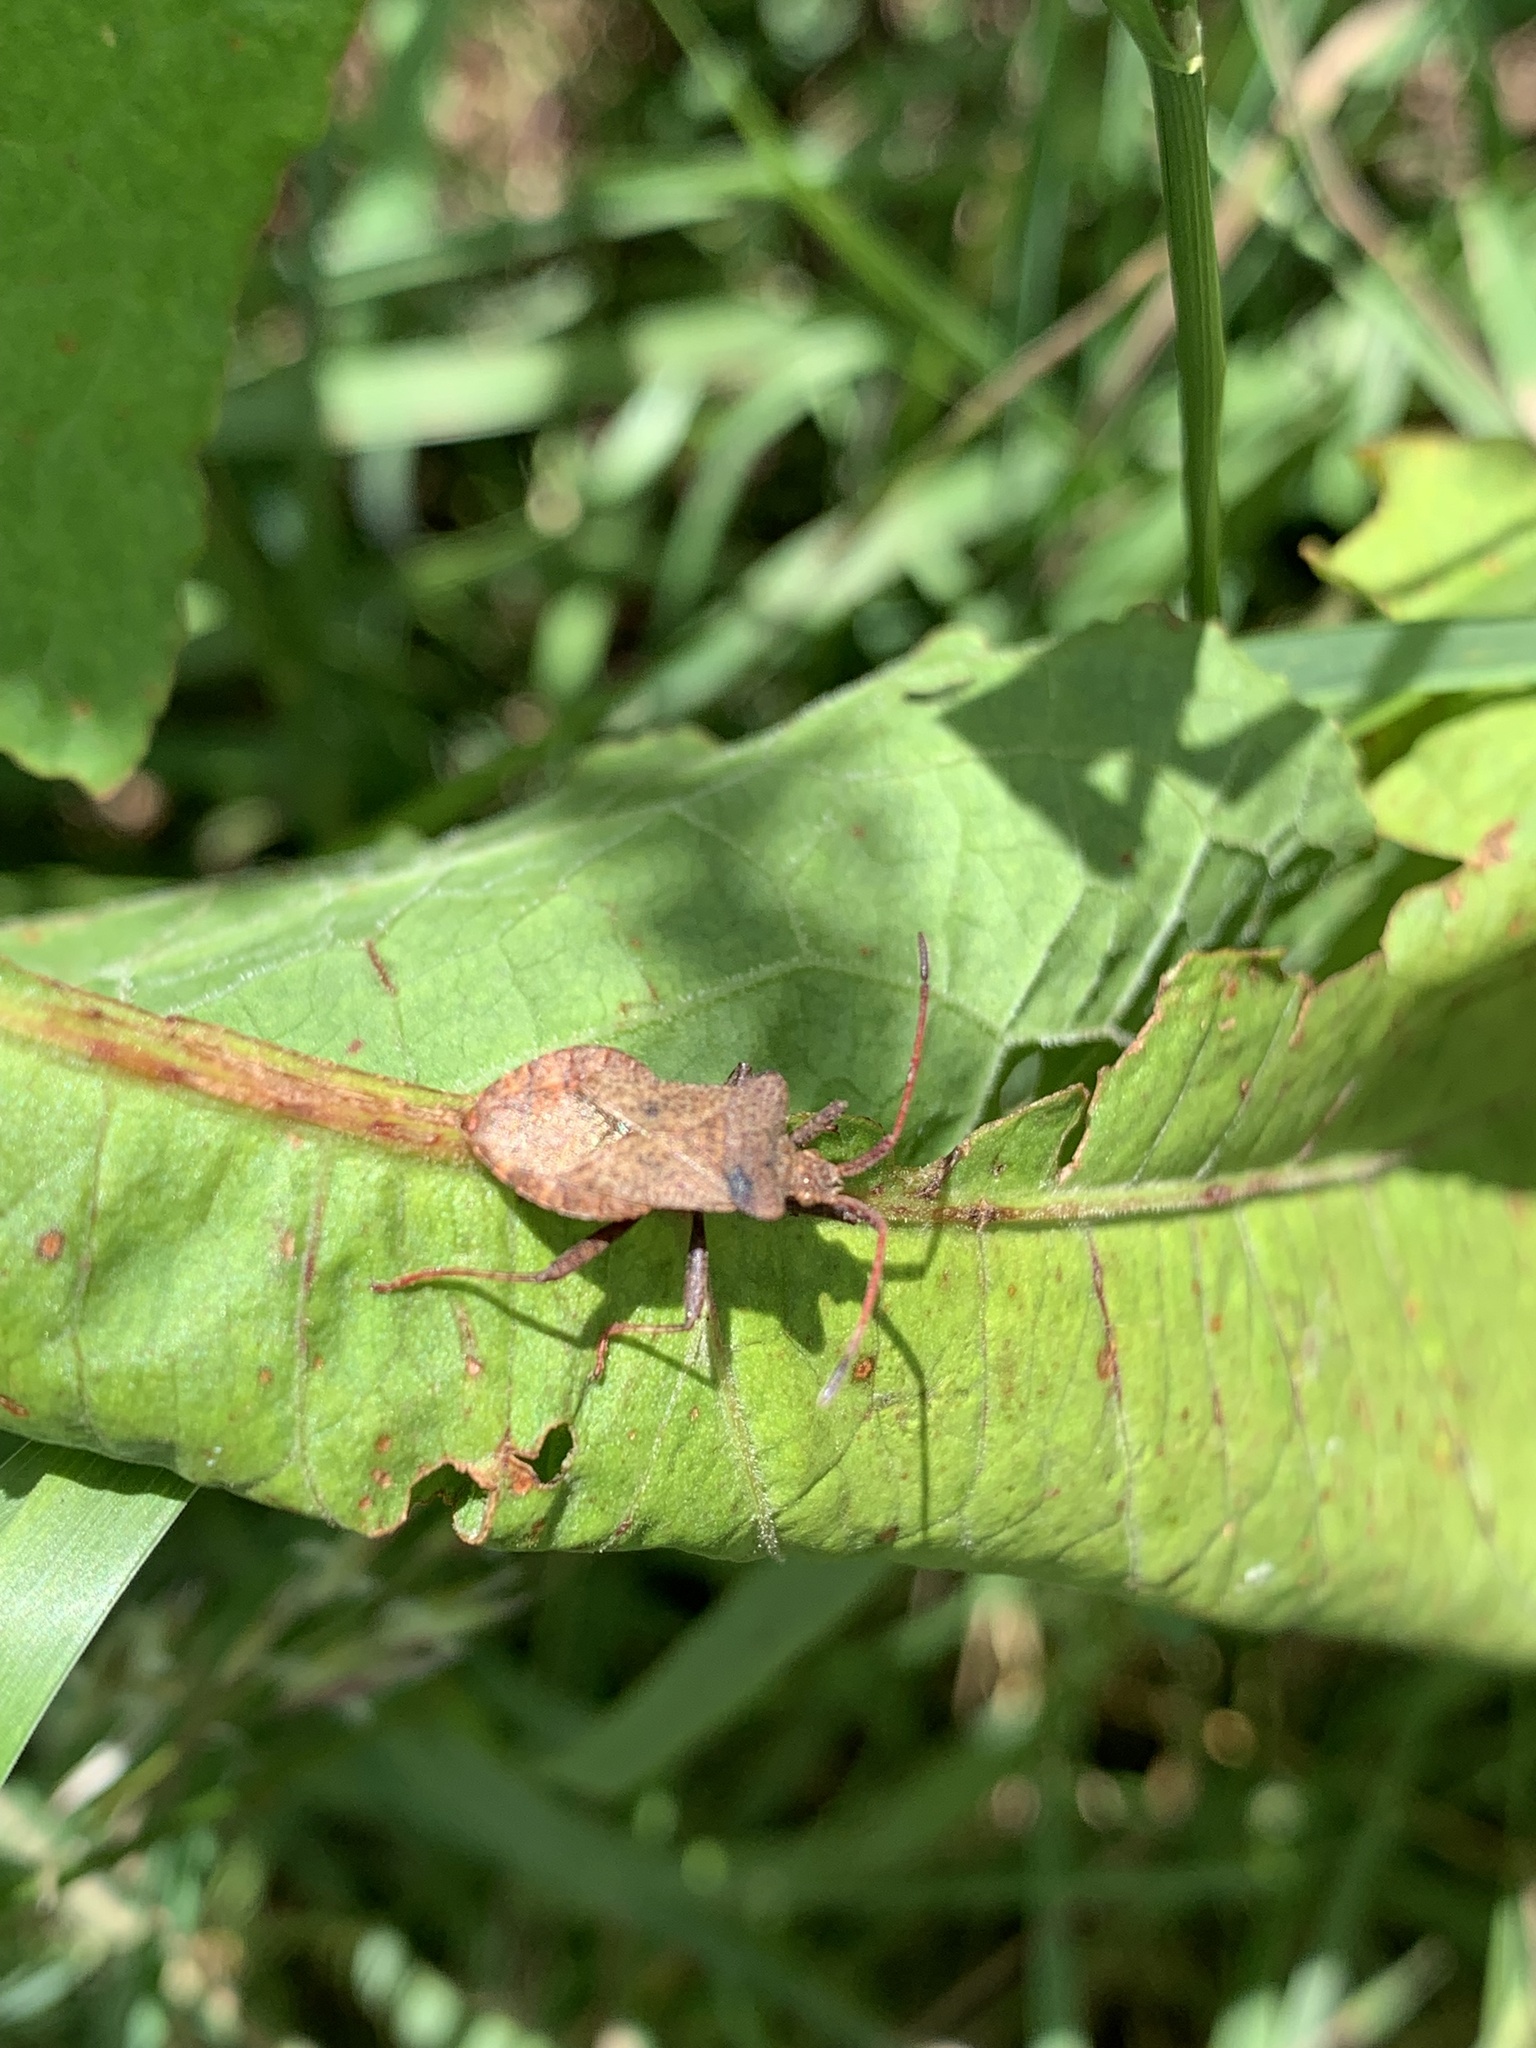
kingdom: Animalia
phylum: Arthropoda
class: Insecta
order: Hemiptera
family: Coreidae
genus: Coreus
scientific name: Coreus marginatus
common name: Dock bug
